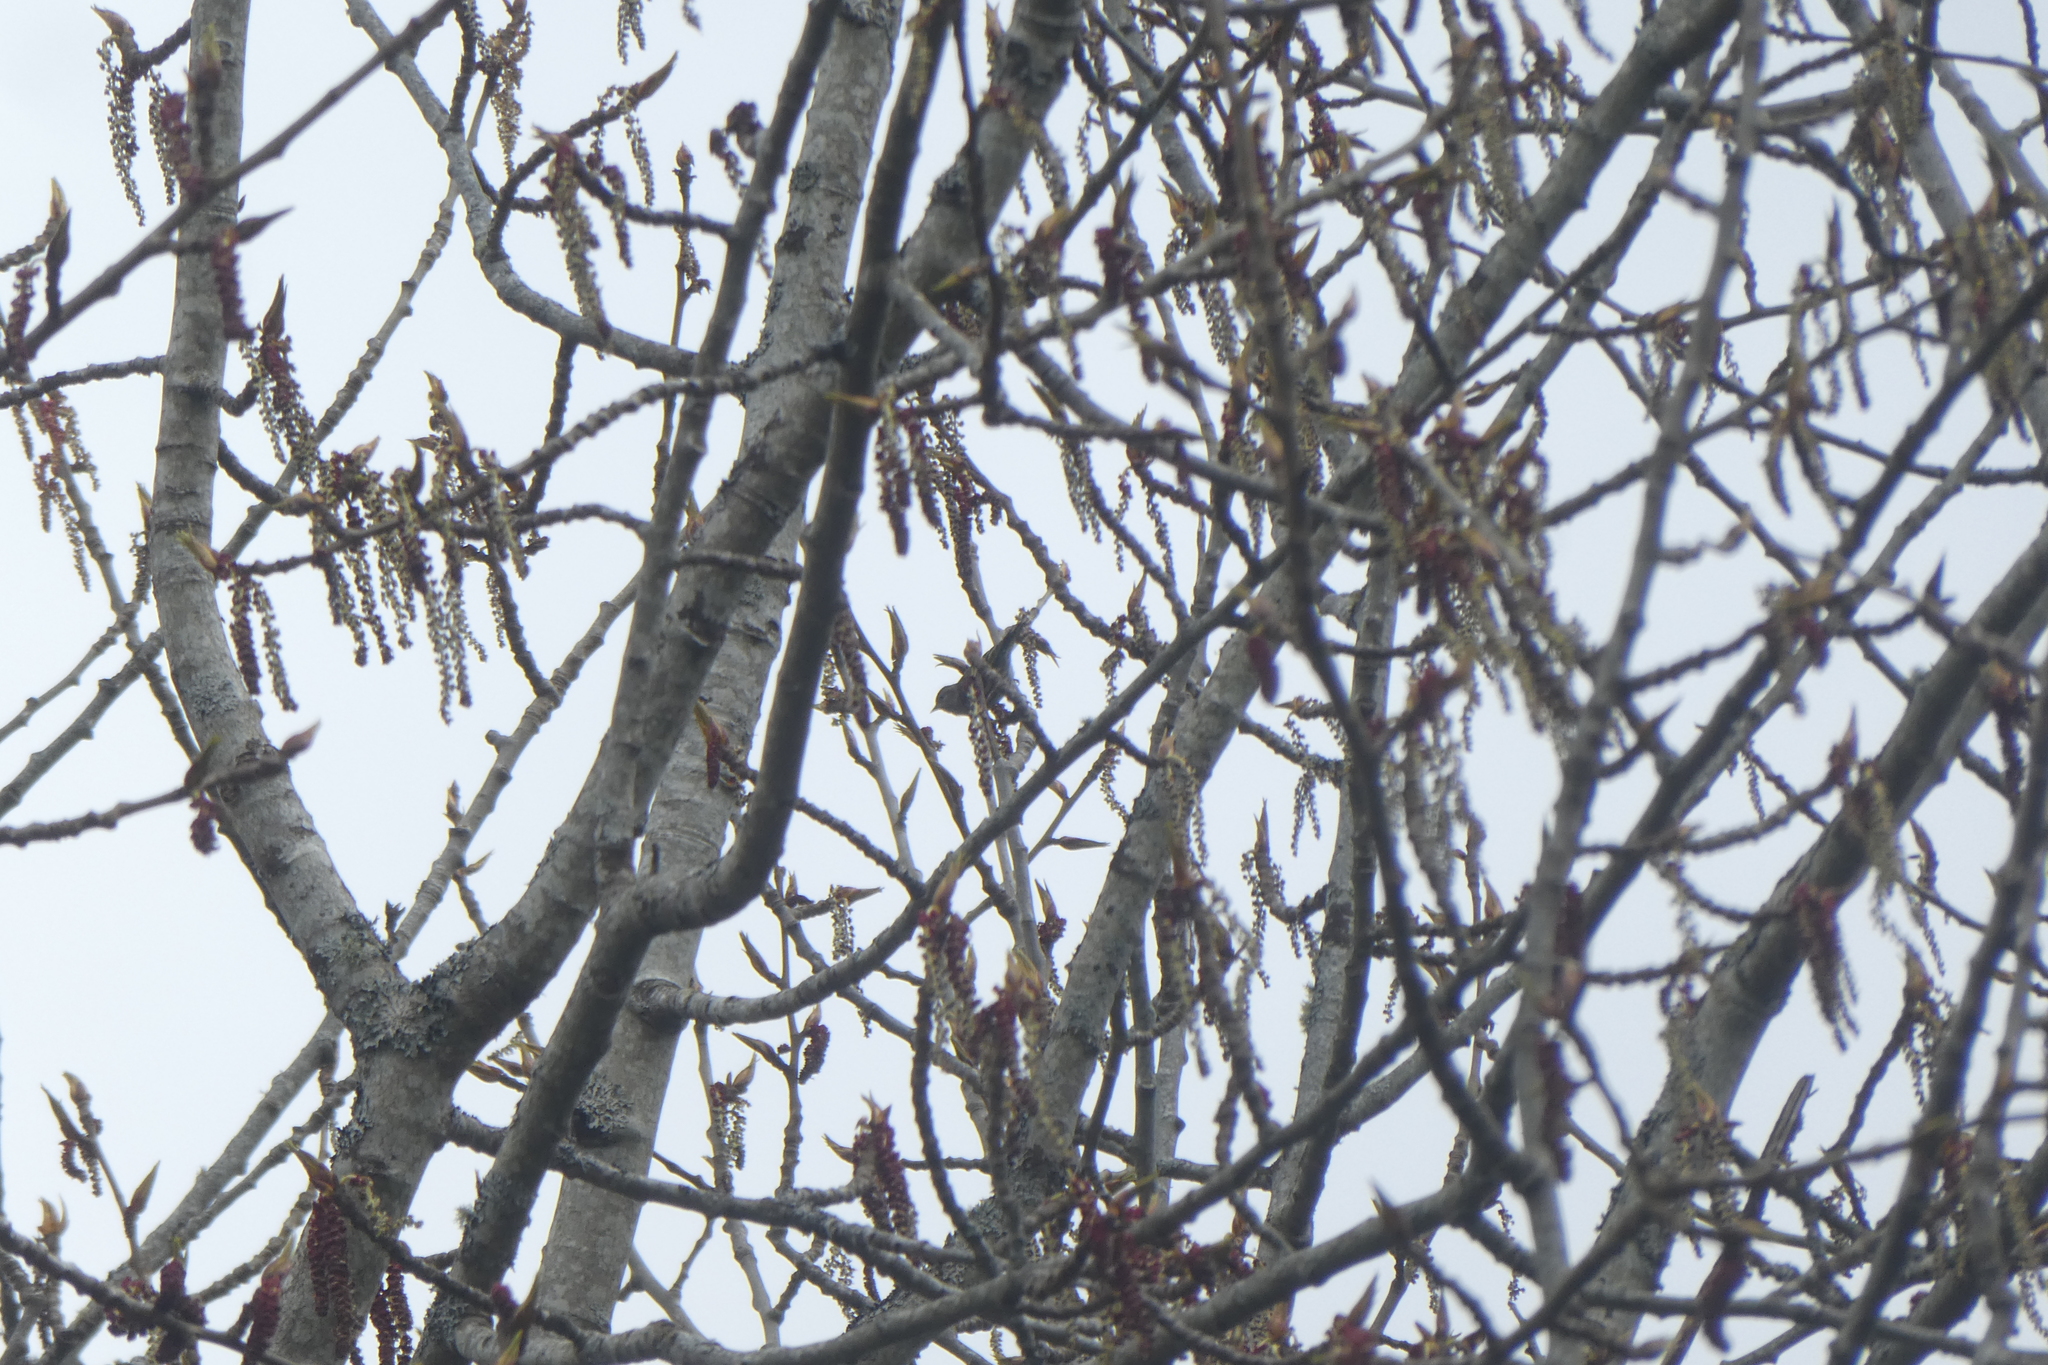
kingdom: Animalia
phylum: Chordata
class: Aves
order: Passeriformes
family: Fringillidae
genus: Spinus
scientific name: Spinus pinus
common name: Pine siskin
